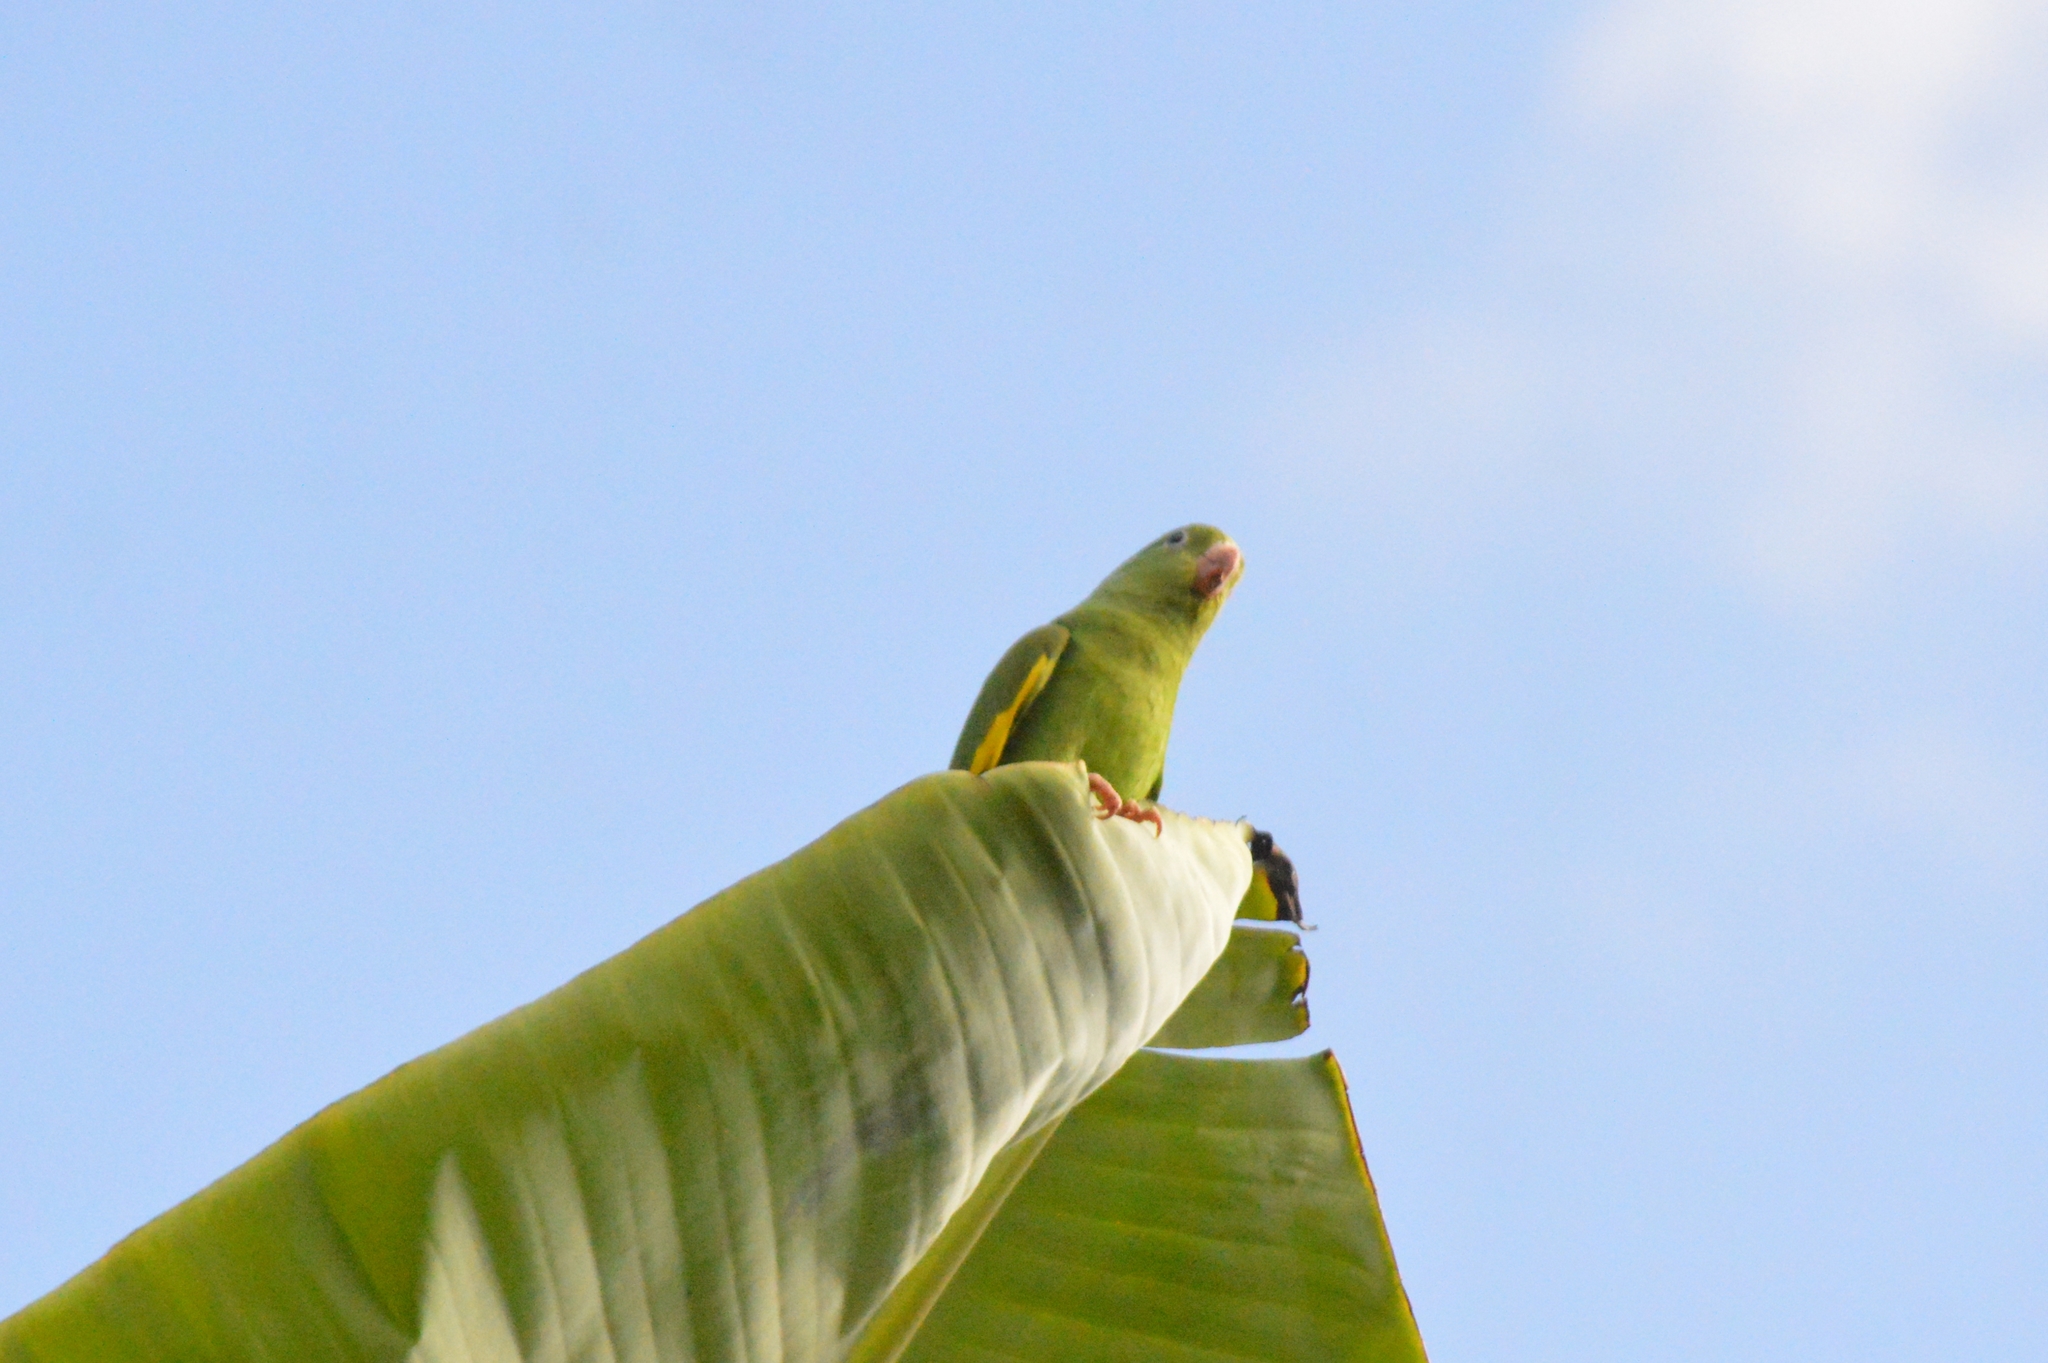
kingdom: Animalia
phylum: Chordata
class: Aves
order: Psittaciformes
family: Psittacidae
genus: Brotogeris
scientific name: Brotogeris chiriri
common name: Yellow-chevroned parakeet
